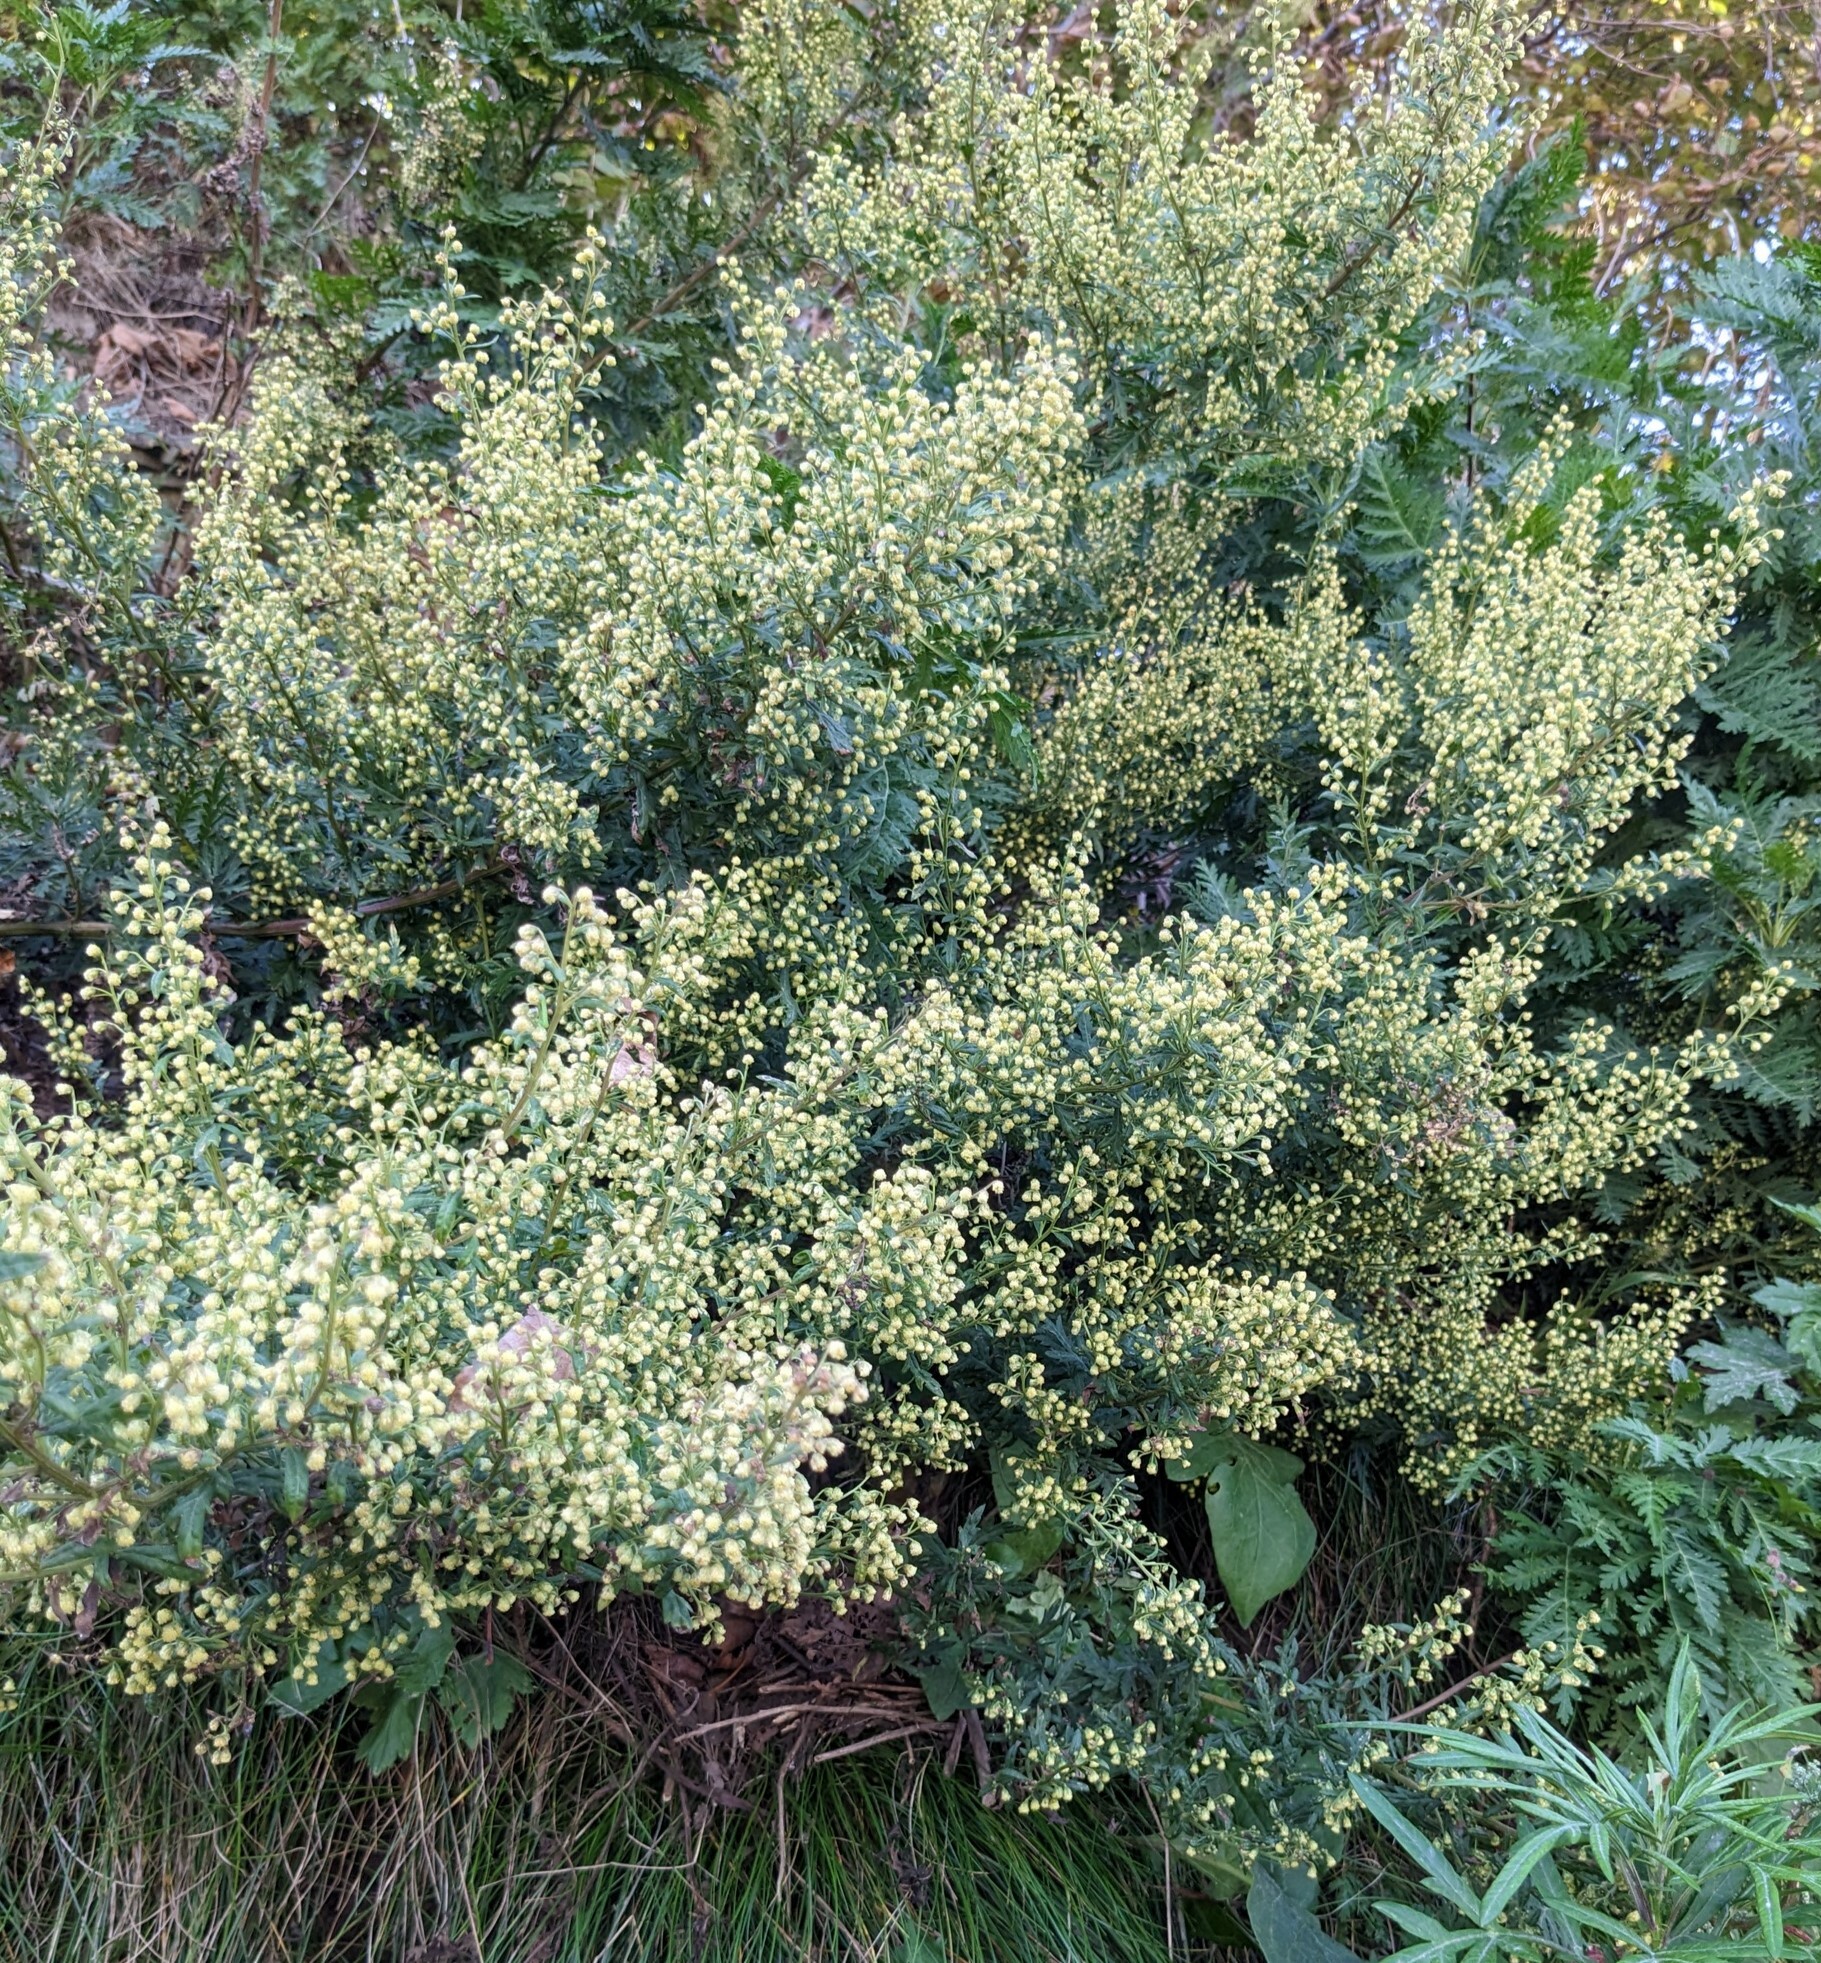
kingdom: Plantae
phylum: Tracheophyta
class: Magnoliopsida
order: Asterales
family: Asteraceae
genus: Artemisia
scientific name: Artemisia gmelinii
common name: Gmelin's wormwood
